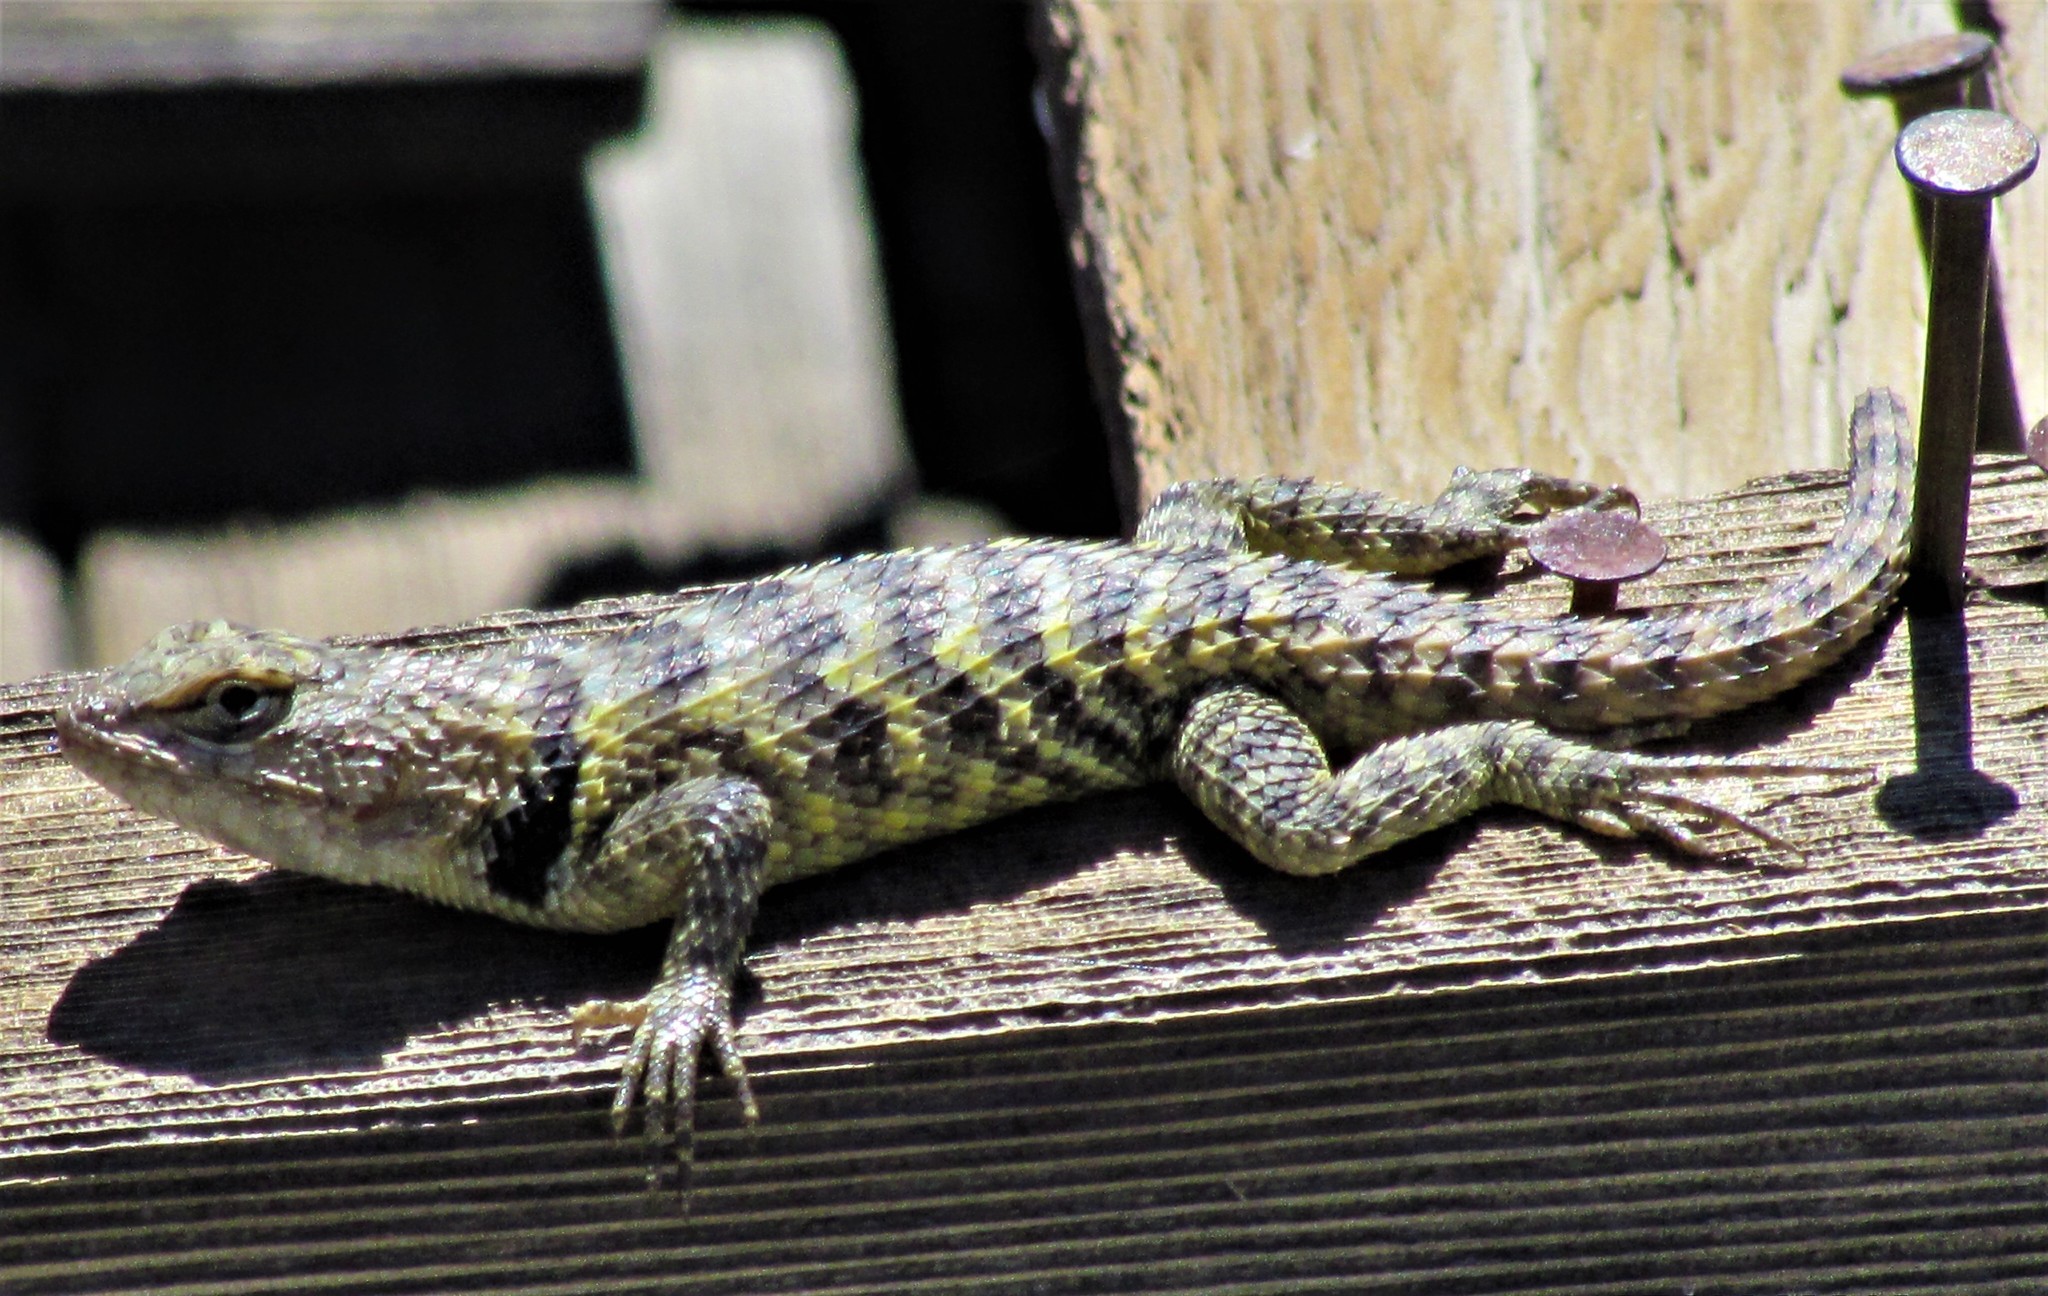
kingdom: Animalia
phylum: Chordata
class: Squamata
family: Phrynosomatidae
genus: Sceloporus
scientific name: Sceloporus uniformis
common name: Yellow-backed spiny lizard
